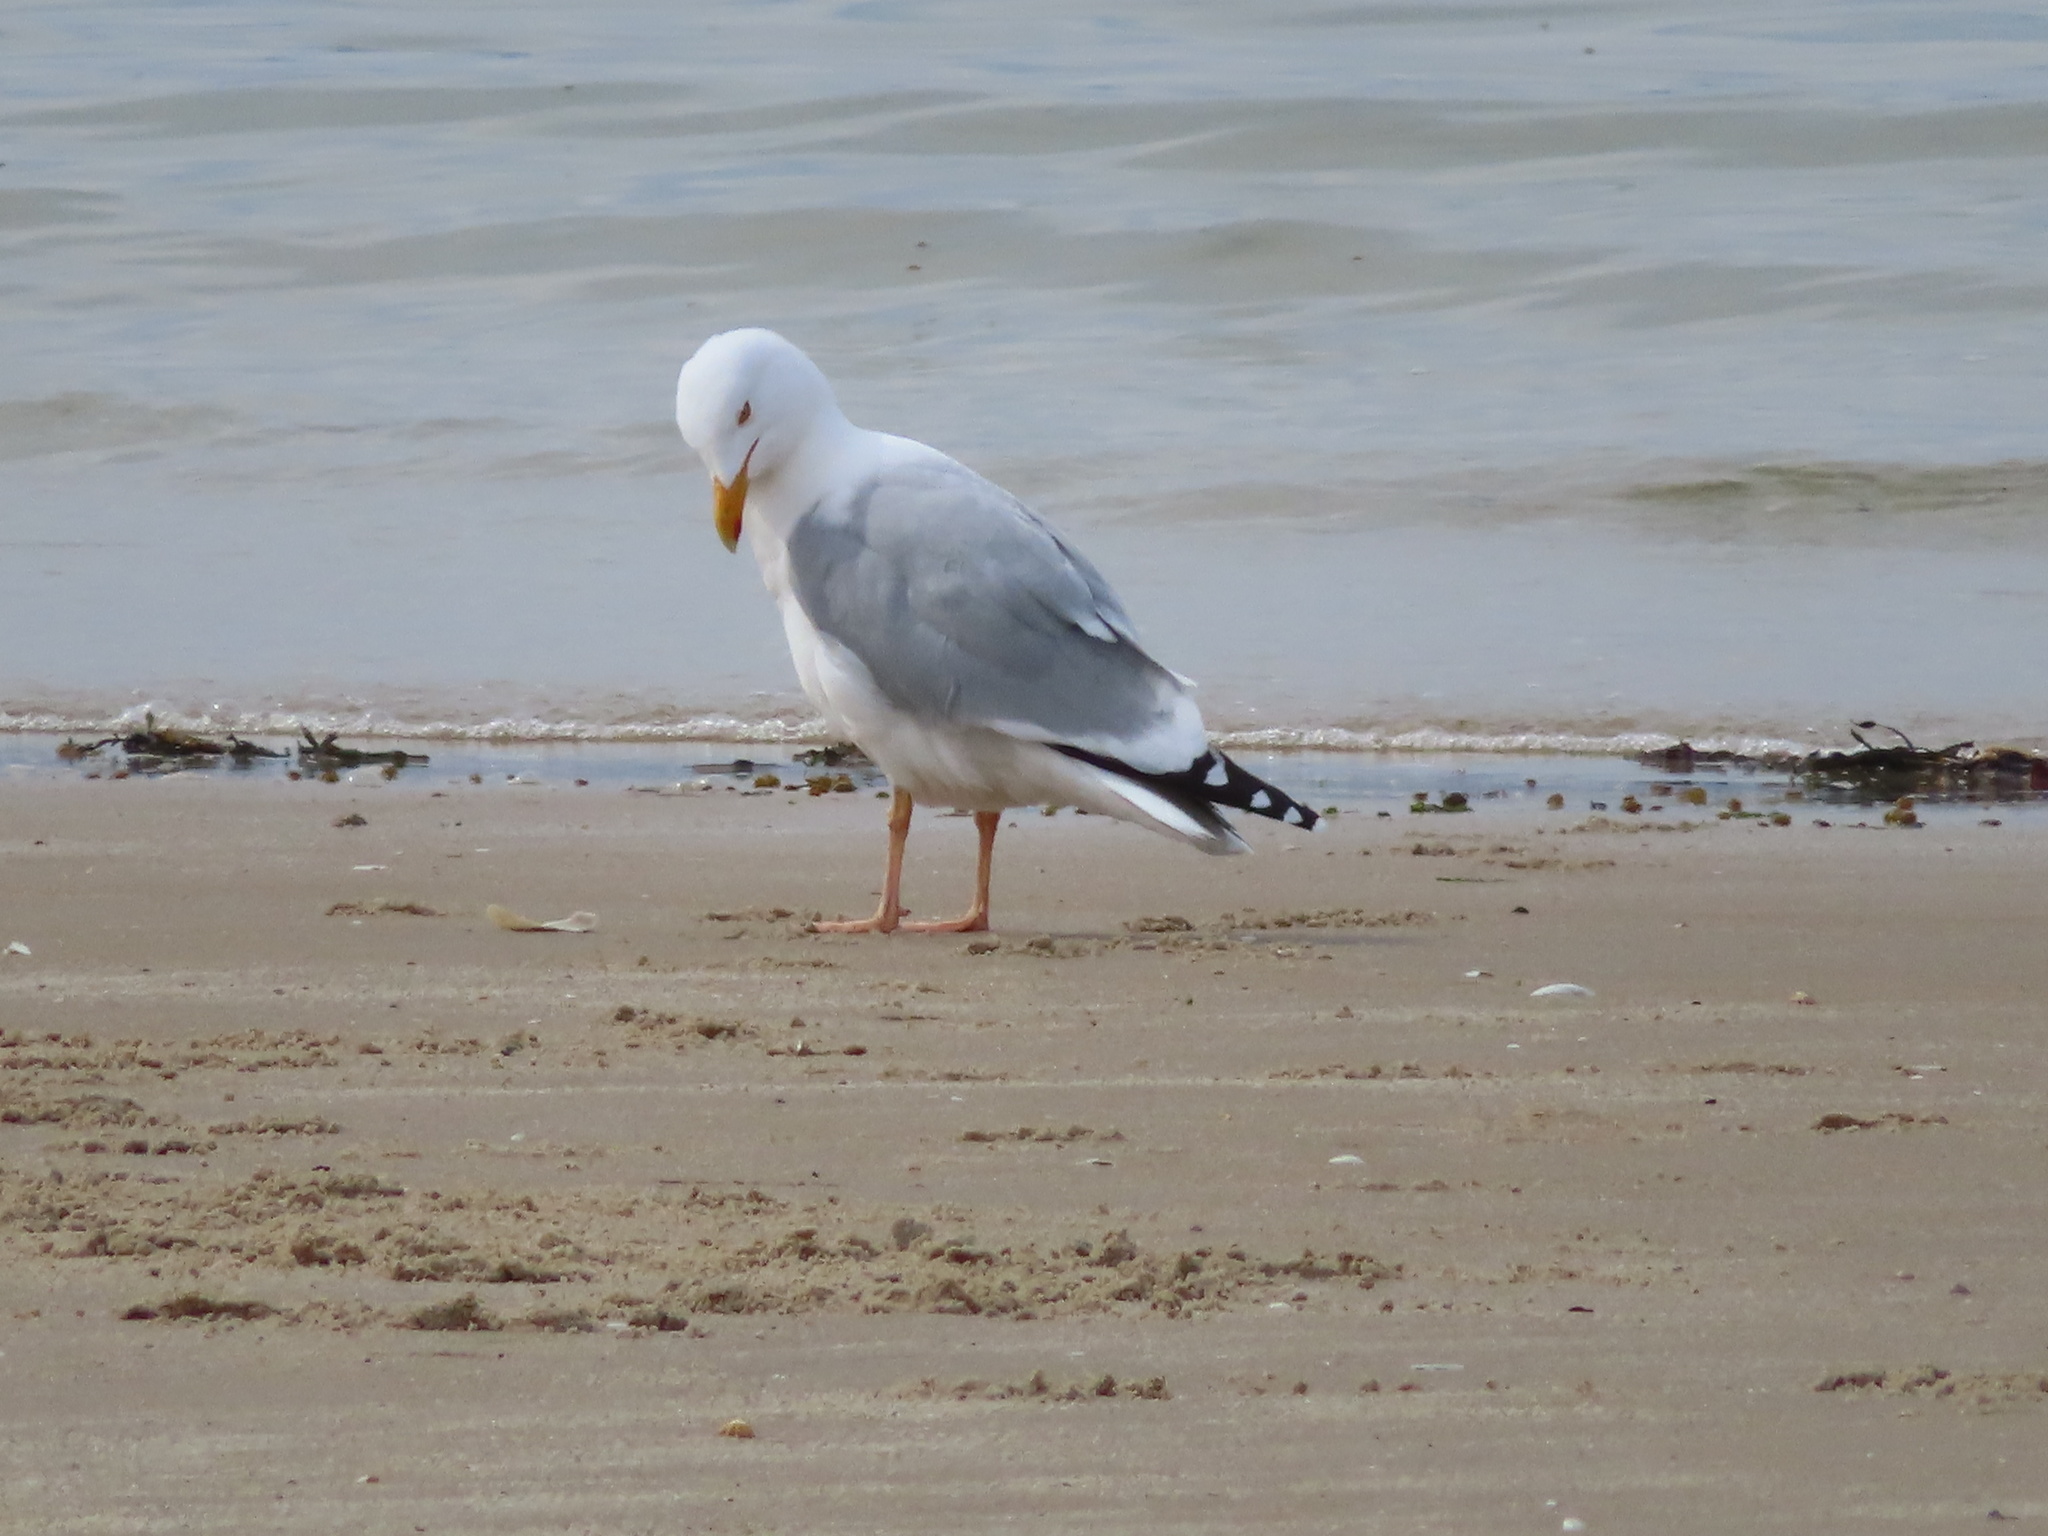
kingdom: Animalia
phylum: Chordata
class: Aves
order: Charadriiformes
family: Laridae
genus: Larus
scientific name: Larus argentatus
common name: Herring gull
